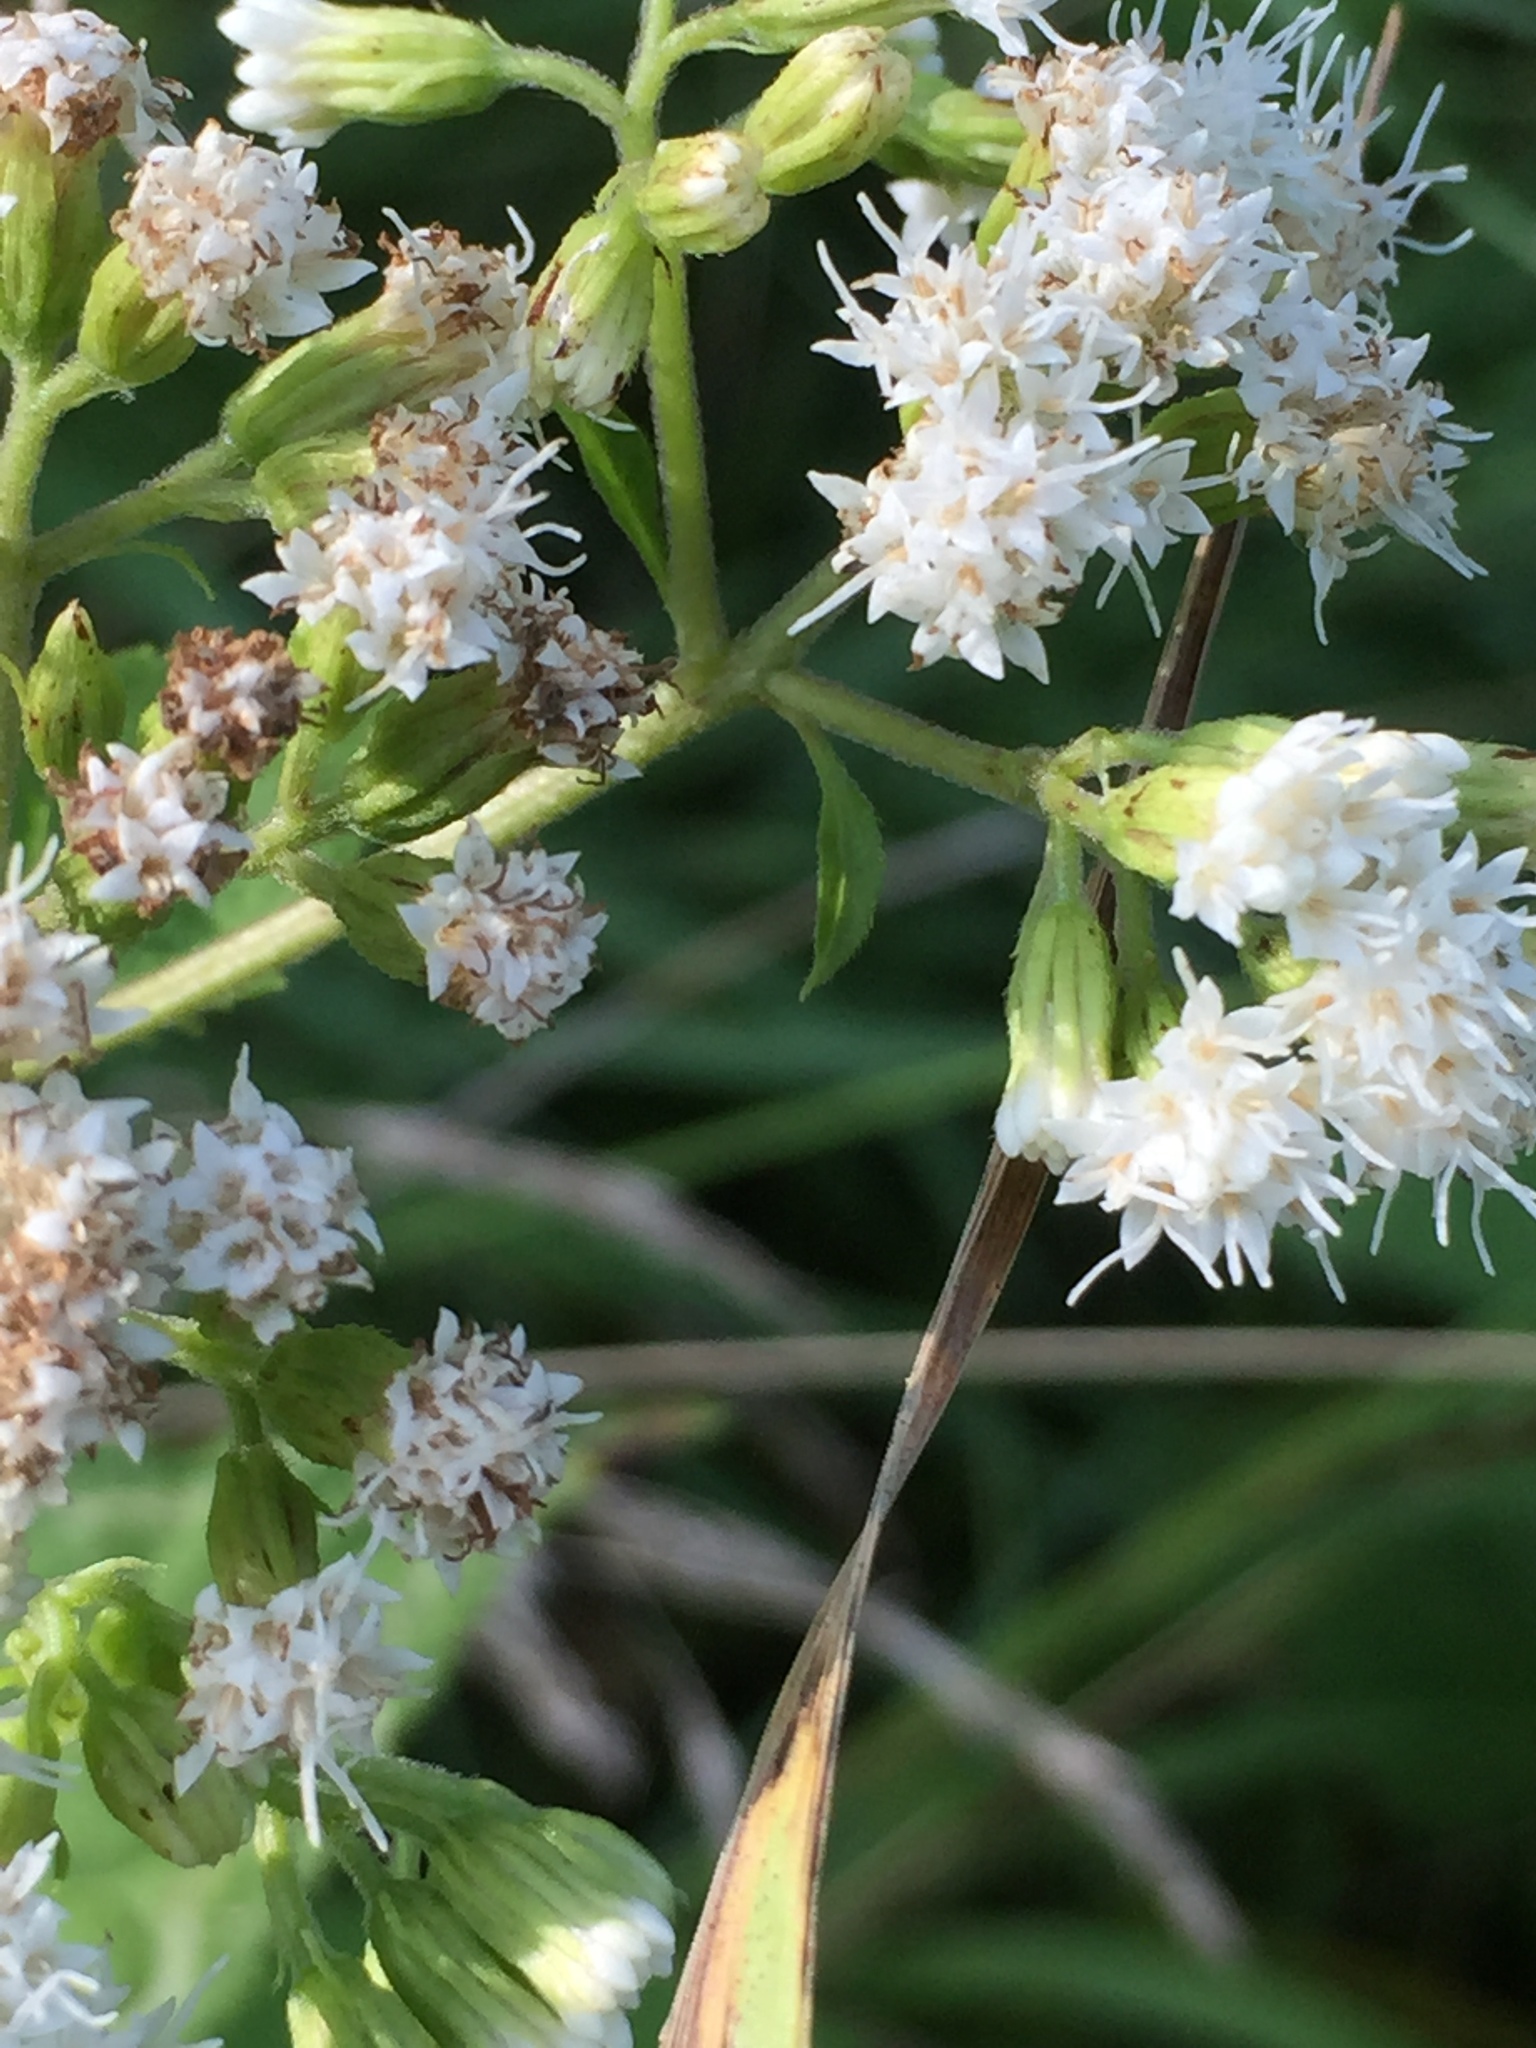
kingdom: Plantae
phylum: Tracheophyta
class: Magnoliopsida
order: Asterales
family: Asteraceae
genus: Ageratina
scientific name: Ageratina altissima
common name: White snakeroot
